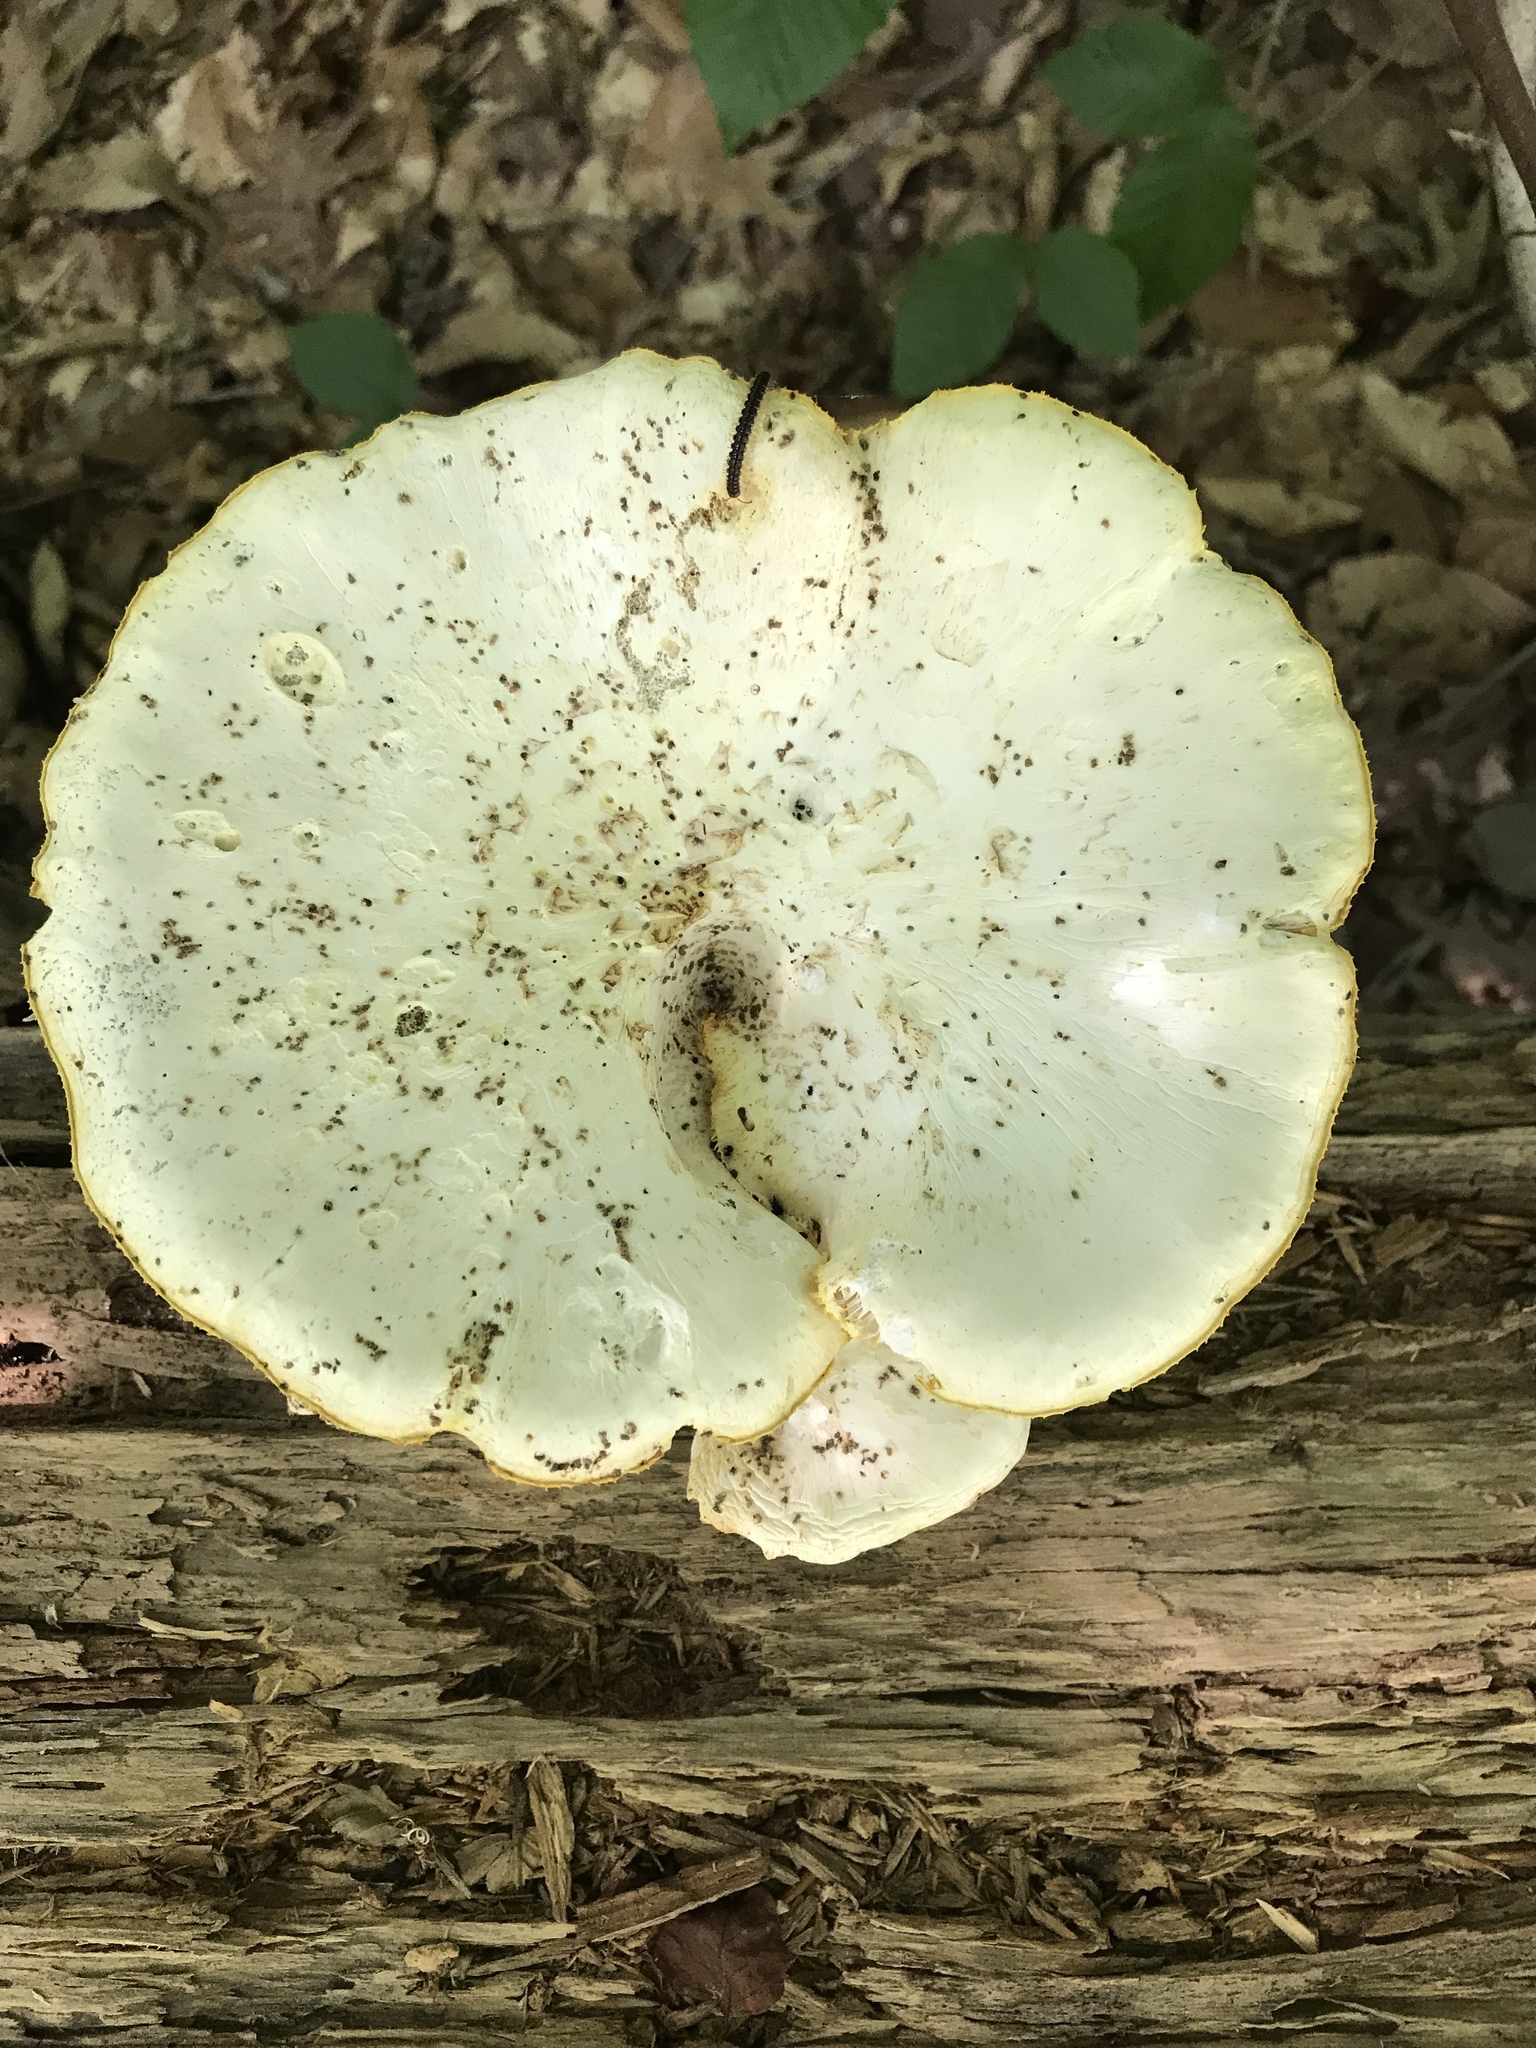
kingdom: Fungi
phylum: Basidiomycota
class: Agaricomycetes
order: Gloeophyllales
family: Gloeophyllaceae
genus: Neolentinus
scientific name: Neolentinus lepideus
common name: Scaly sawgill
